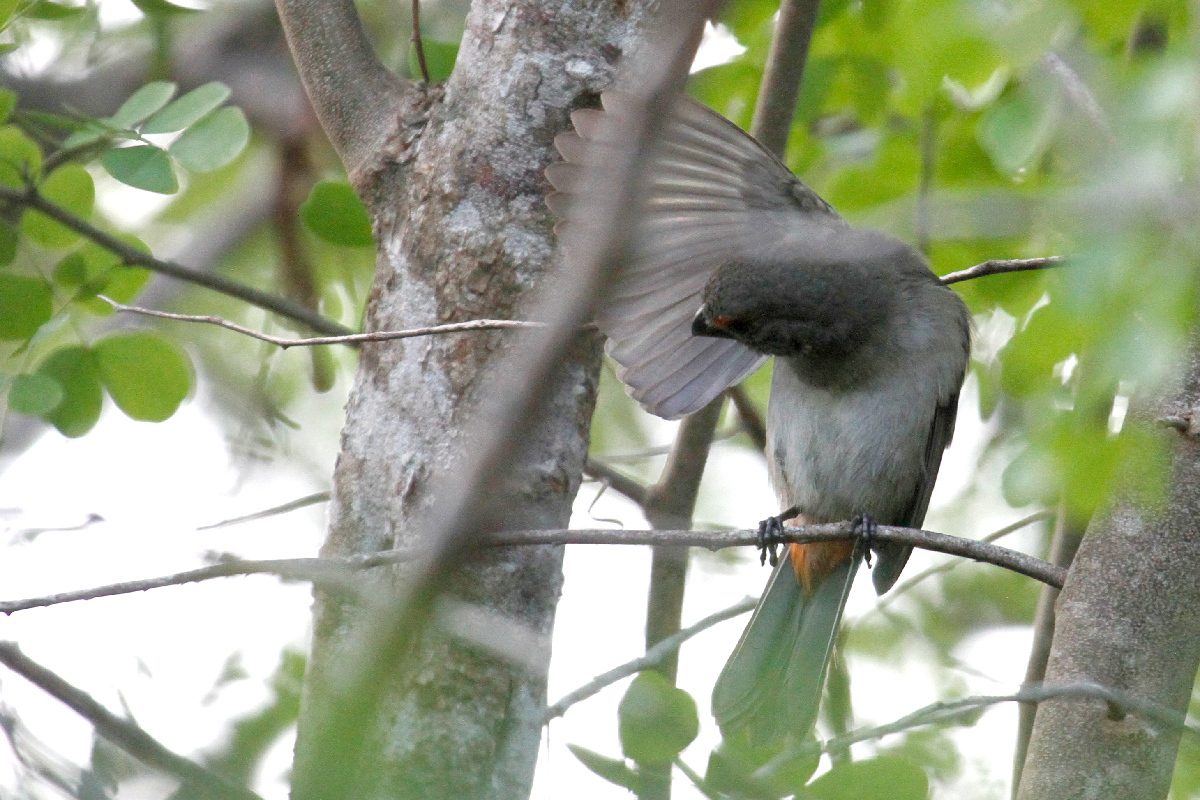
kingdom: Animalia
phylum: Chordata
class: Aves
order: Passeriformes
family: Thraupidae
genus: Melopyrrha
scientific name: Melopyrrha violacea
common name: Greater antillean bullfinch
